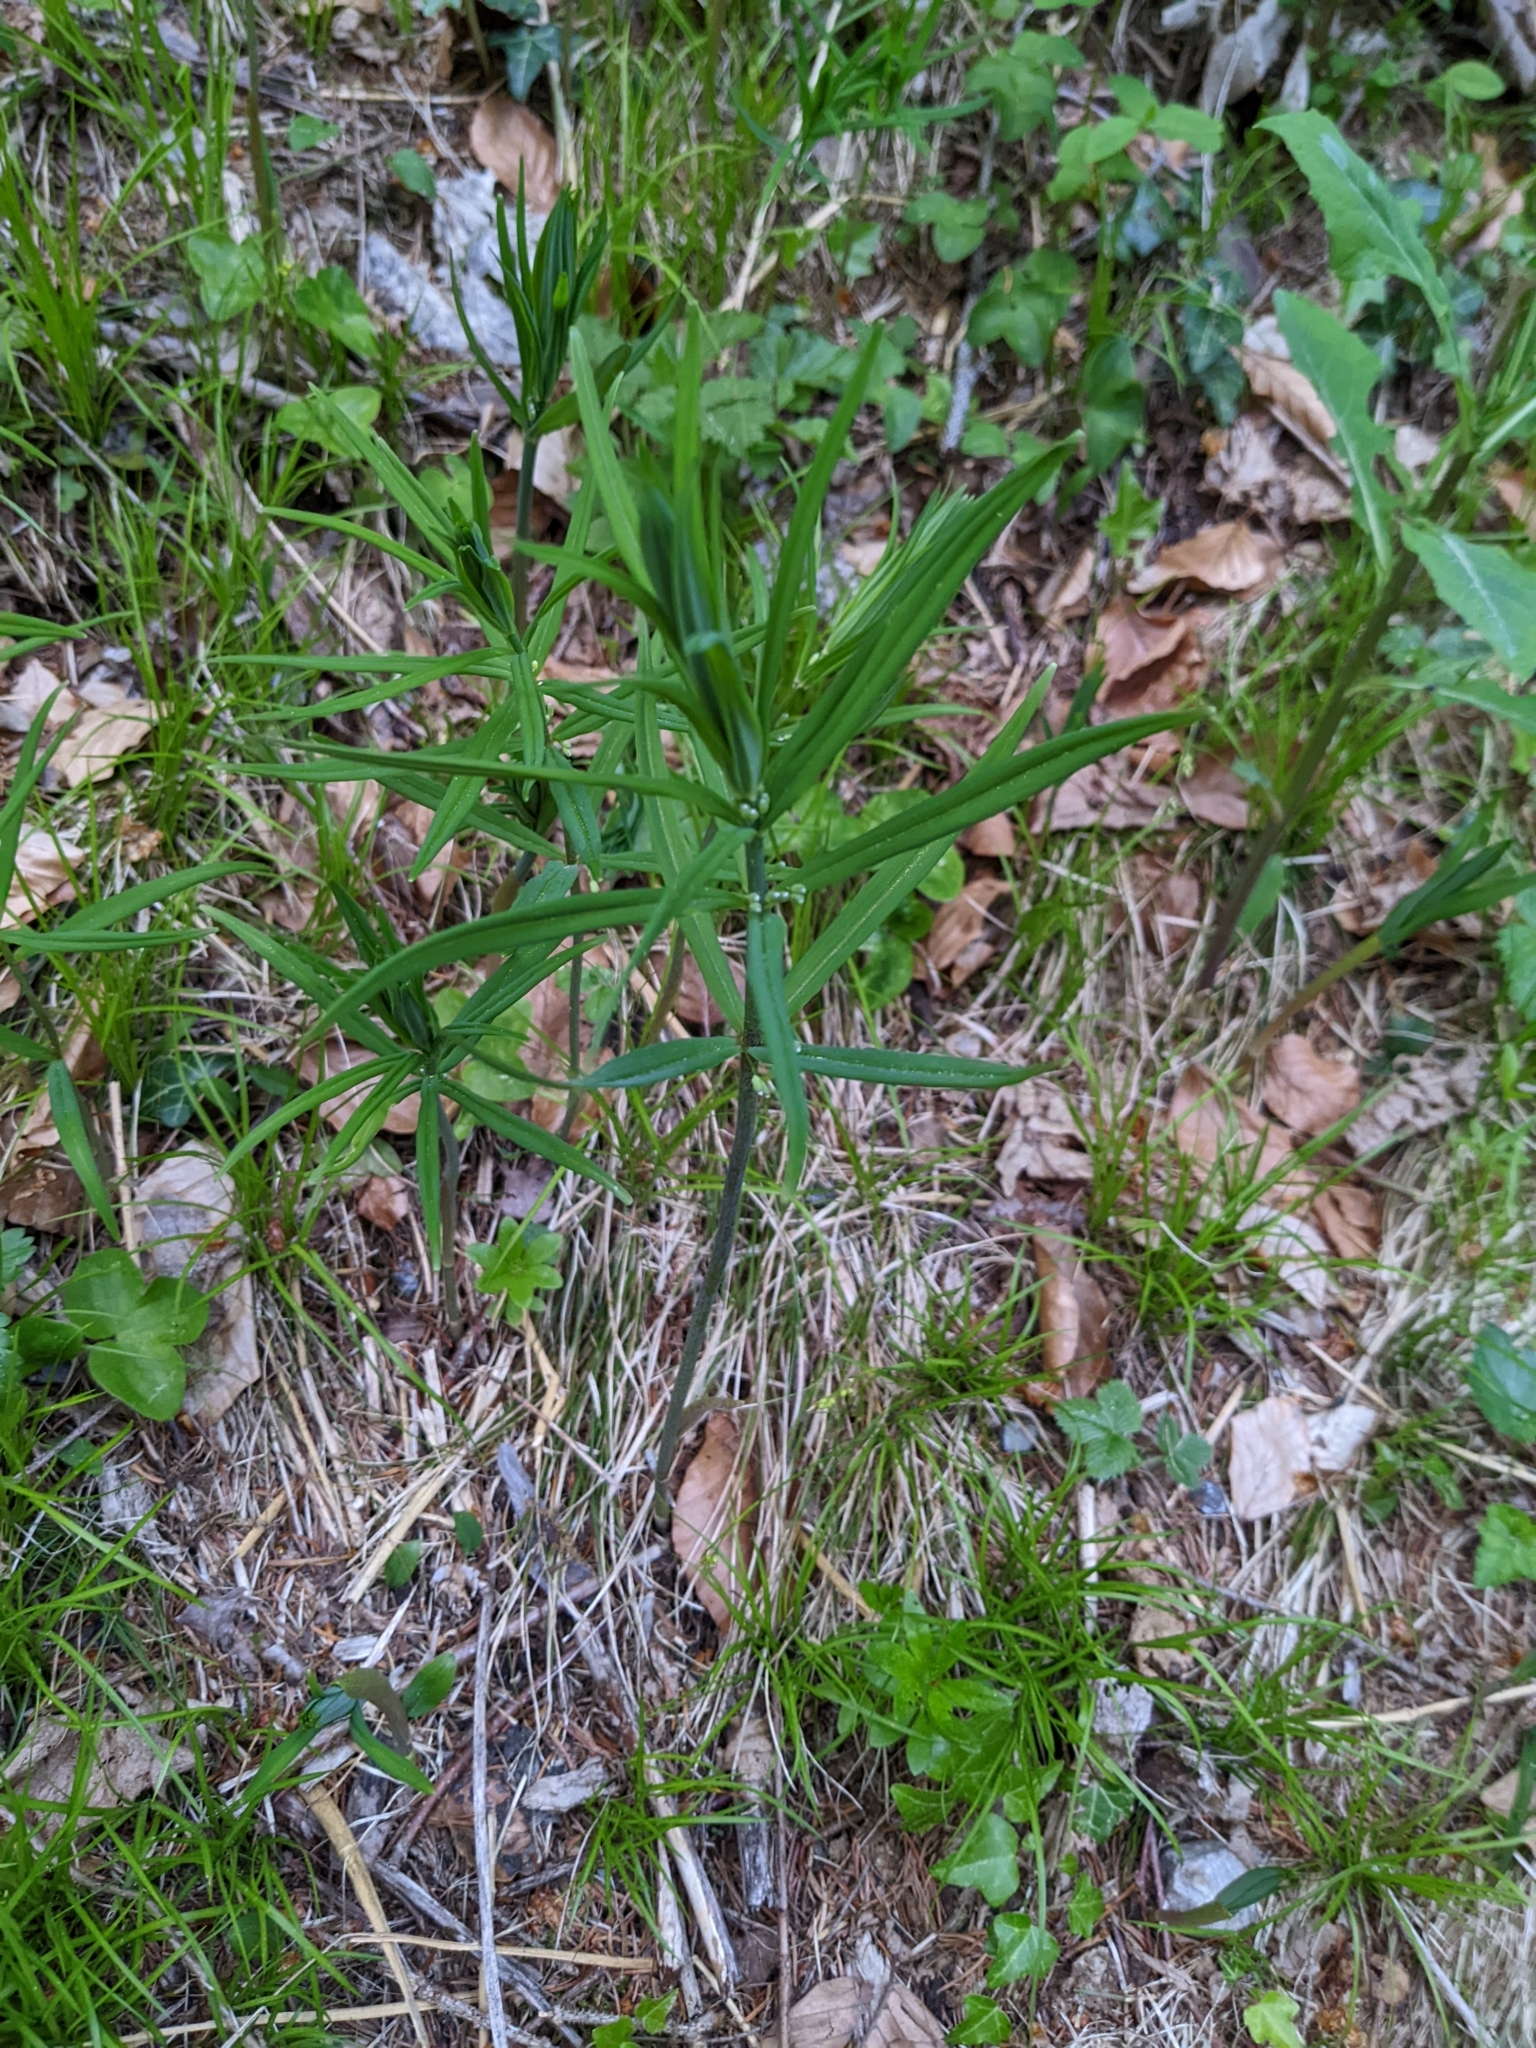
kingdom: Plantae
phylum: Tracheophyta
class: Liliopsida
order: Asparagales
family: Asparagaceae
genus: Polygonatum
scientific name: Polygonatum verticillatum
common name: Whorled solomon's-seal
